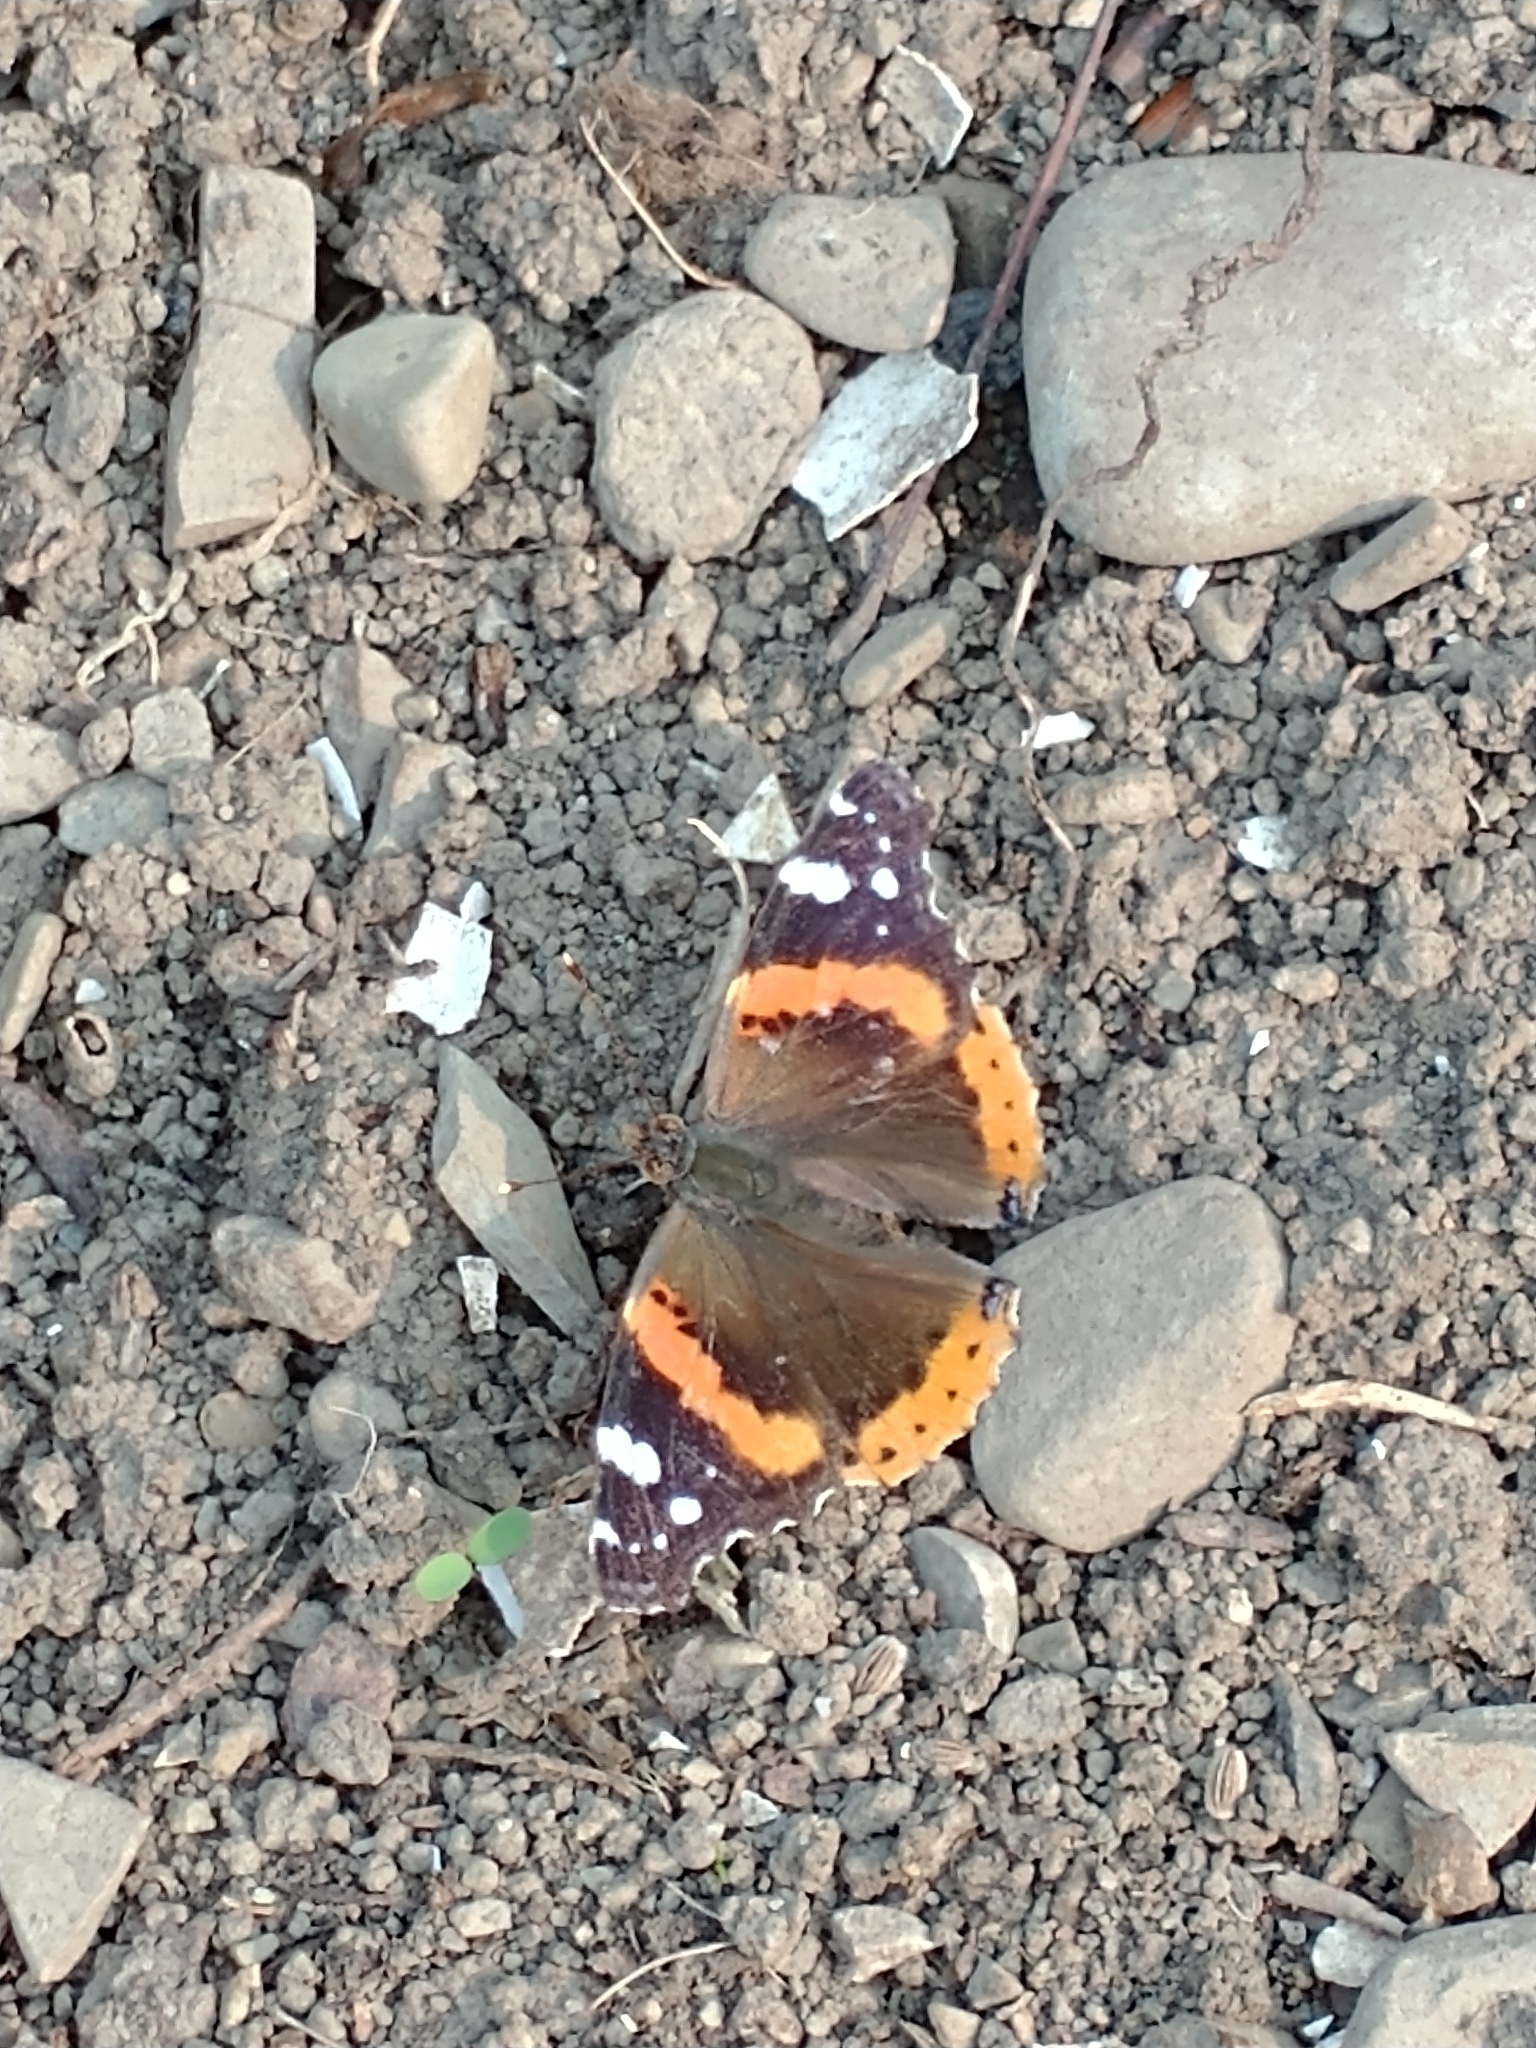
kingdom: Animalia
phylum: Arthropoda
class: Insecta
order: Lepidoptera
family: Nymphalidae
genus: Vanessa
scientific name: Vanessa atalanta
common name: Red admiral
